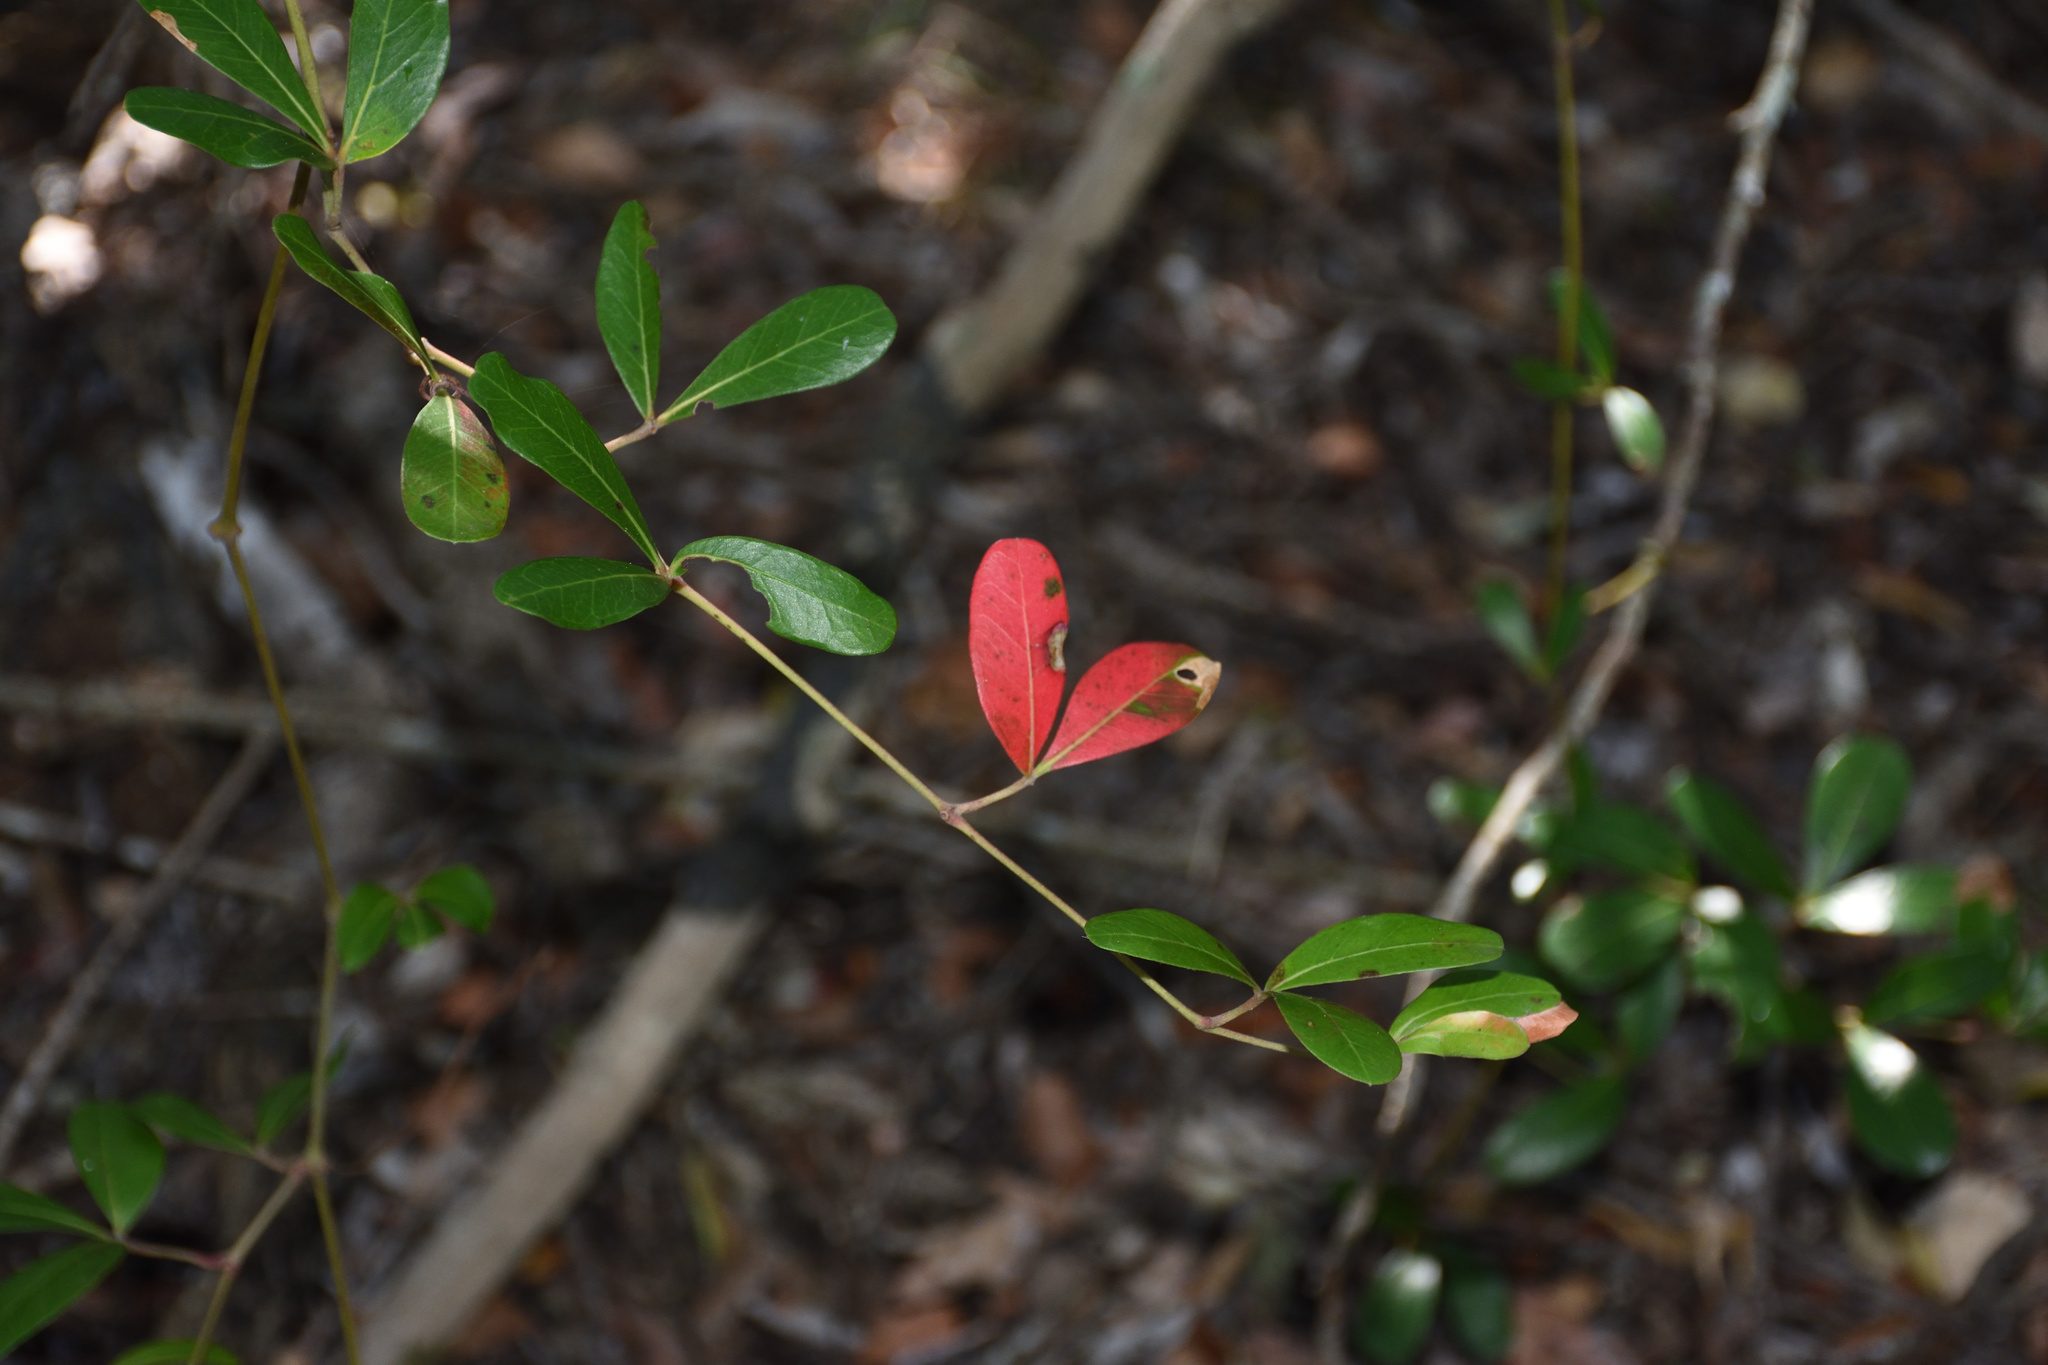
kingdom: Plantae
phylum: Tracheophyta
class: Magnoliopsida
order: Vitales
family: Vitaceae
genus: Rhoicissus
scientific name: Rhoicissus digitata
